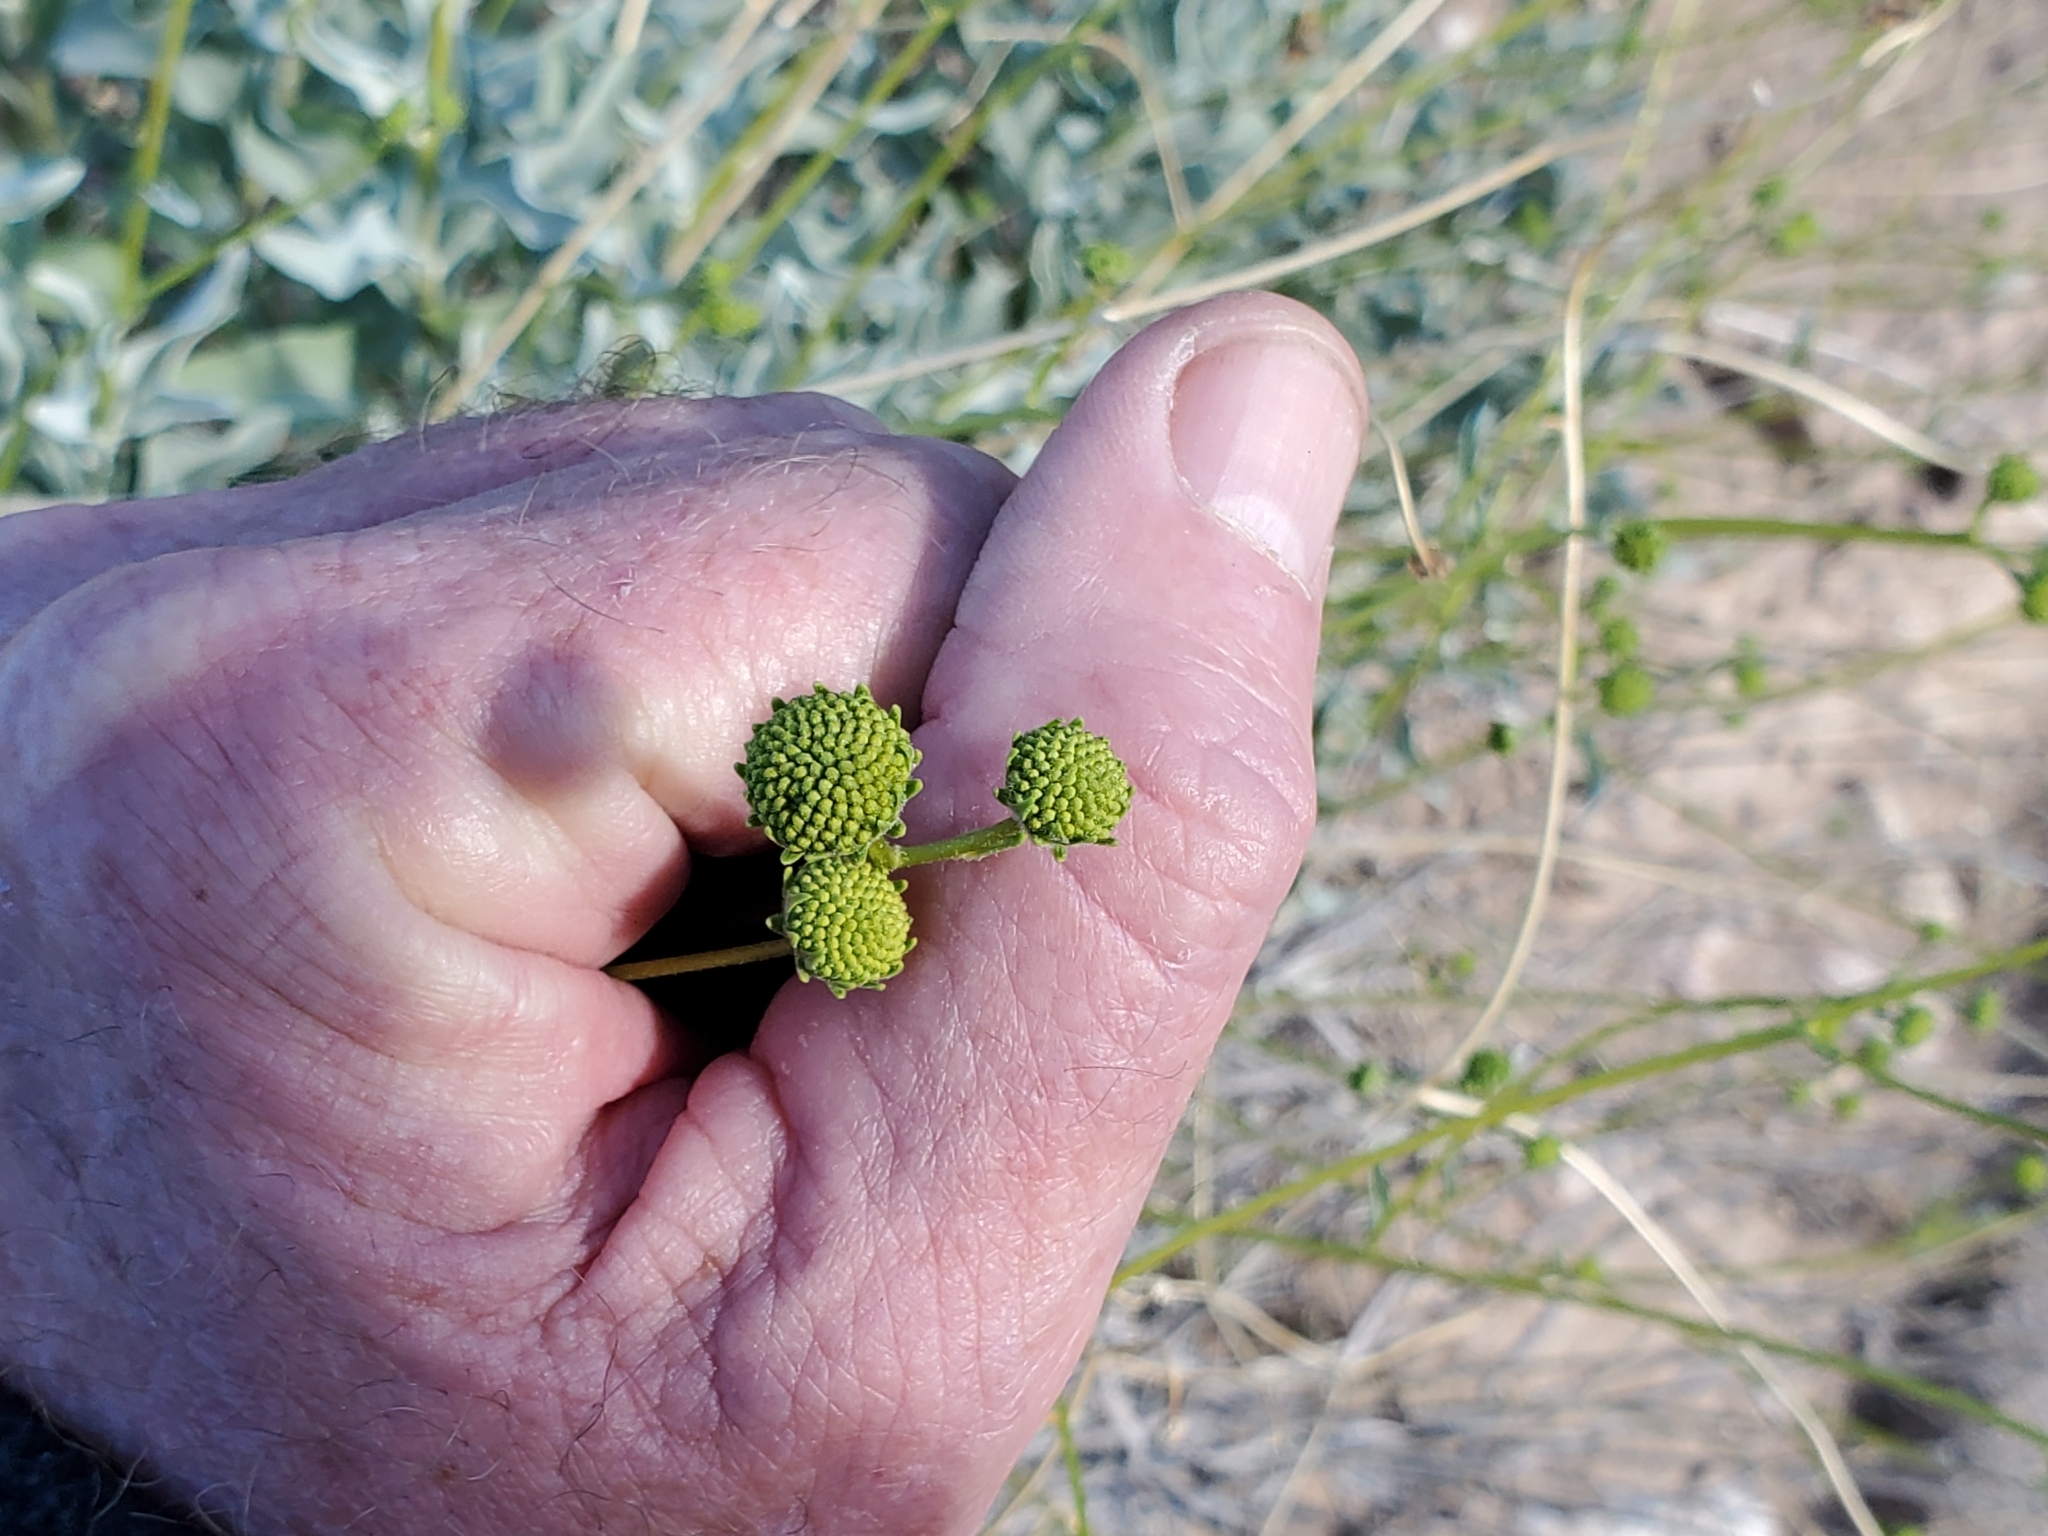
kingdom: Plantae
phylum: Tracheophyta
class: Magnoliopsida
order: Asterales
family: Asteraceae
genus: Encelia
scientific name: Encelia farinosa
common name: Brittlebush
